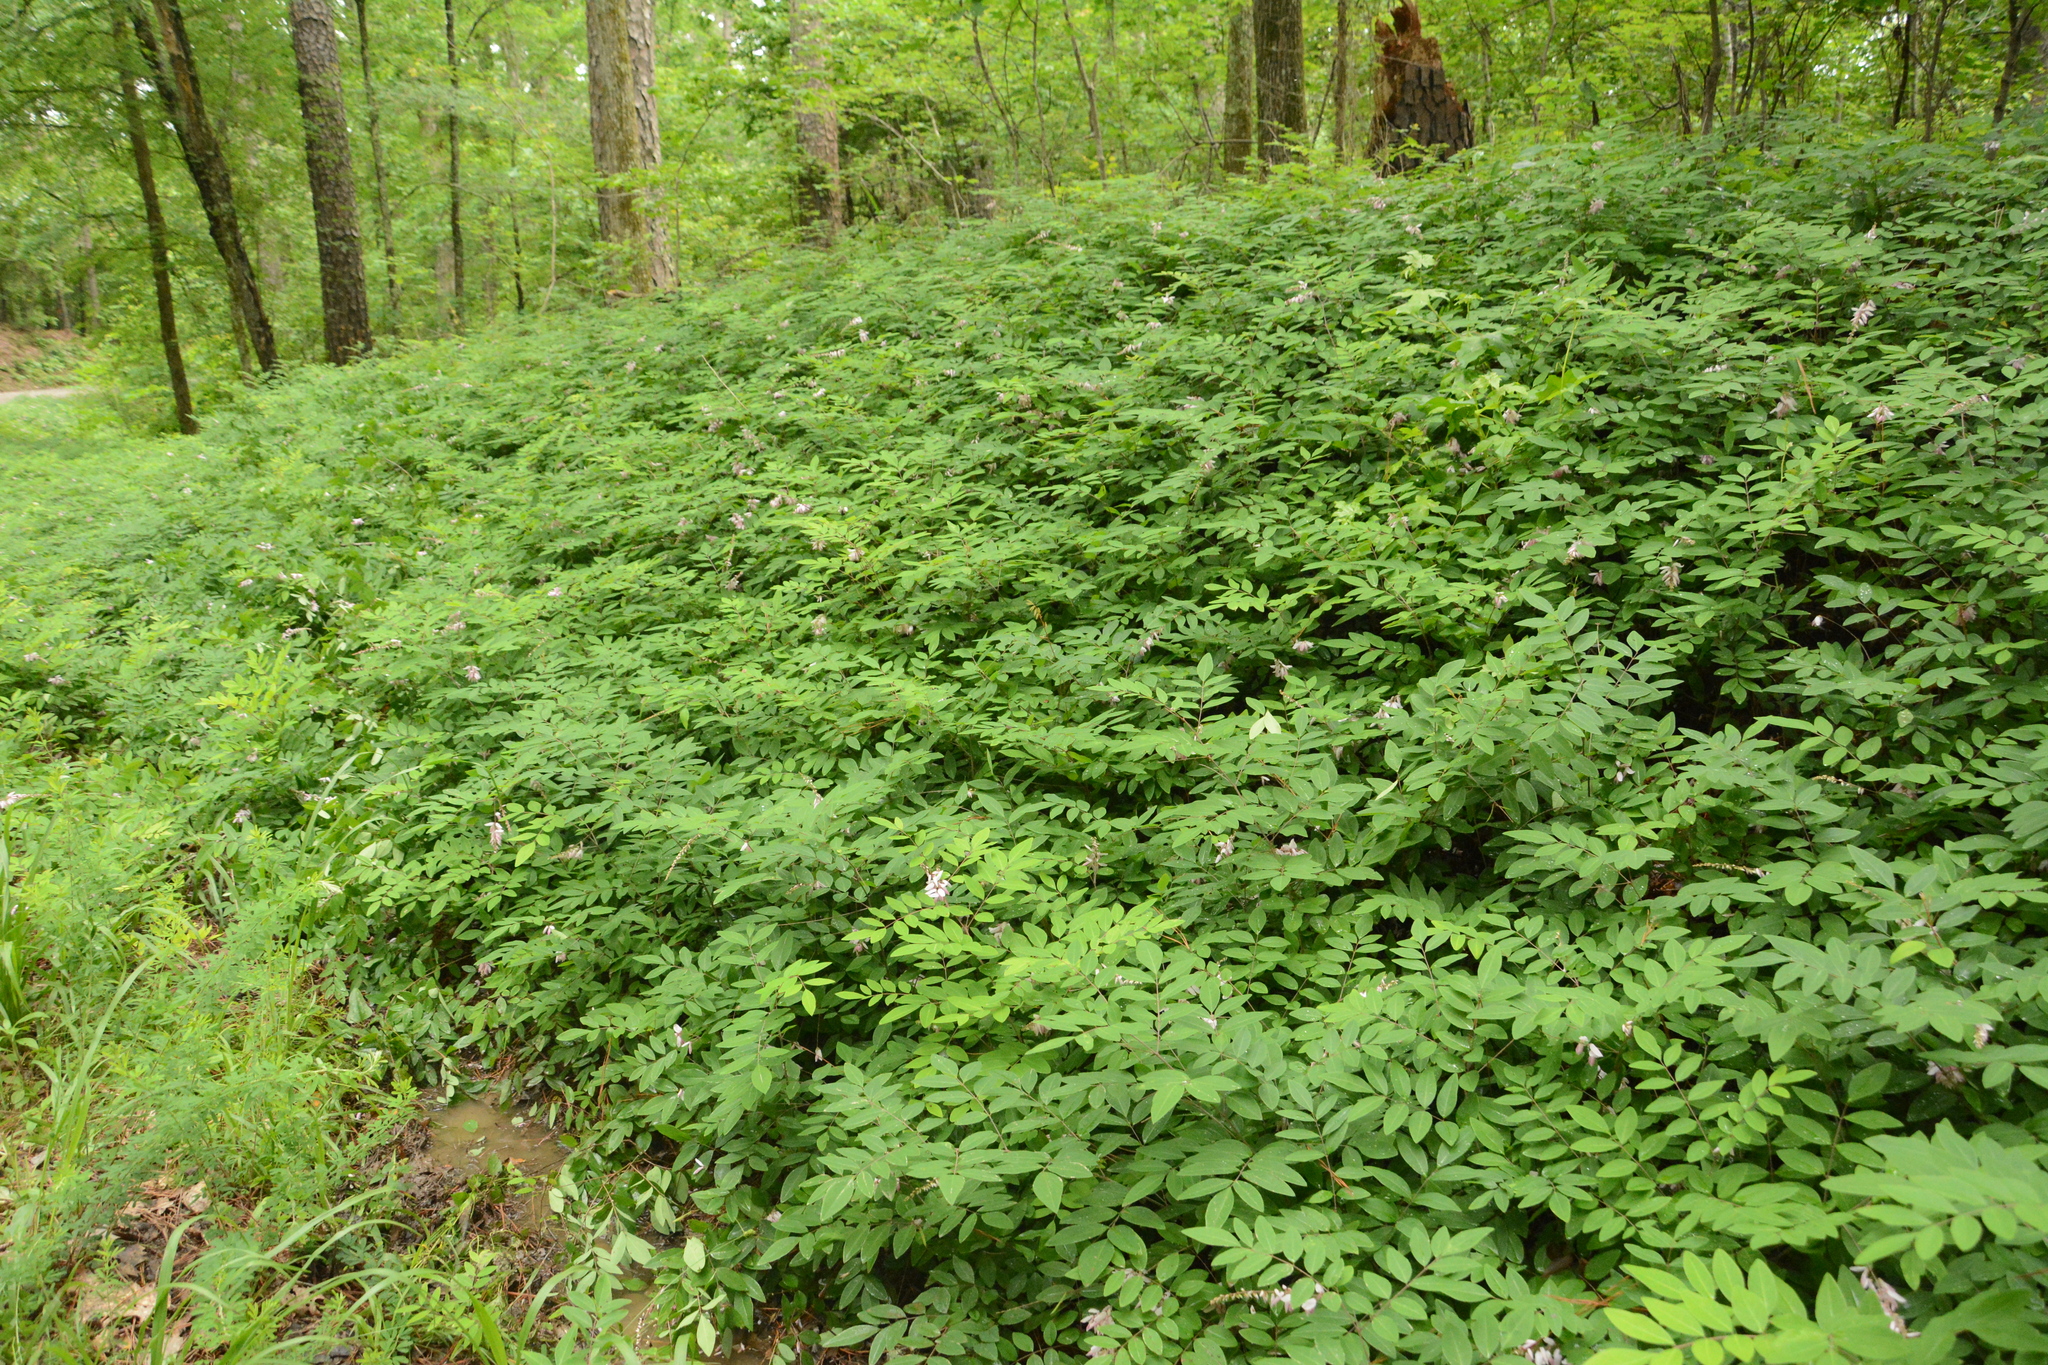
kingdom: Plantae
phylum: Tracheophyta
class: Magnoliopsida
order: Fabales
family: Fabaceae
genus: Indigofera
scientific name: Indigofera incarnata
